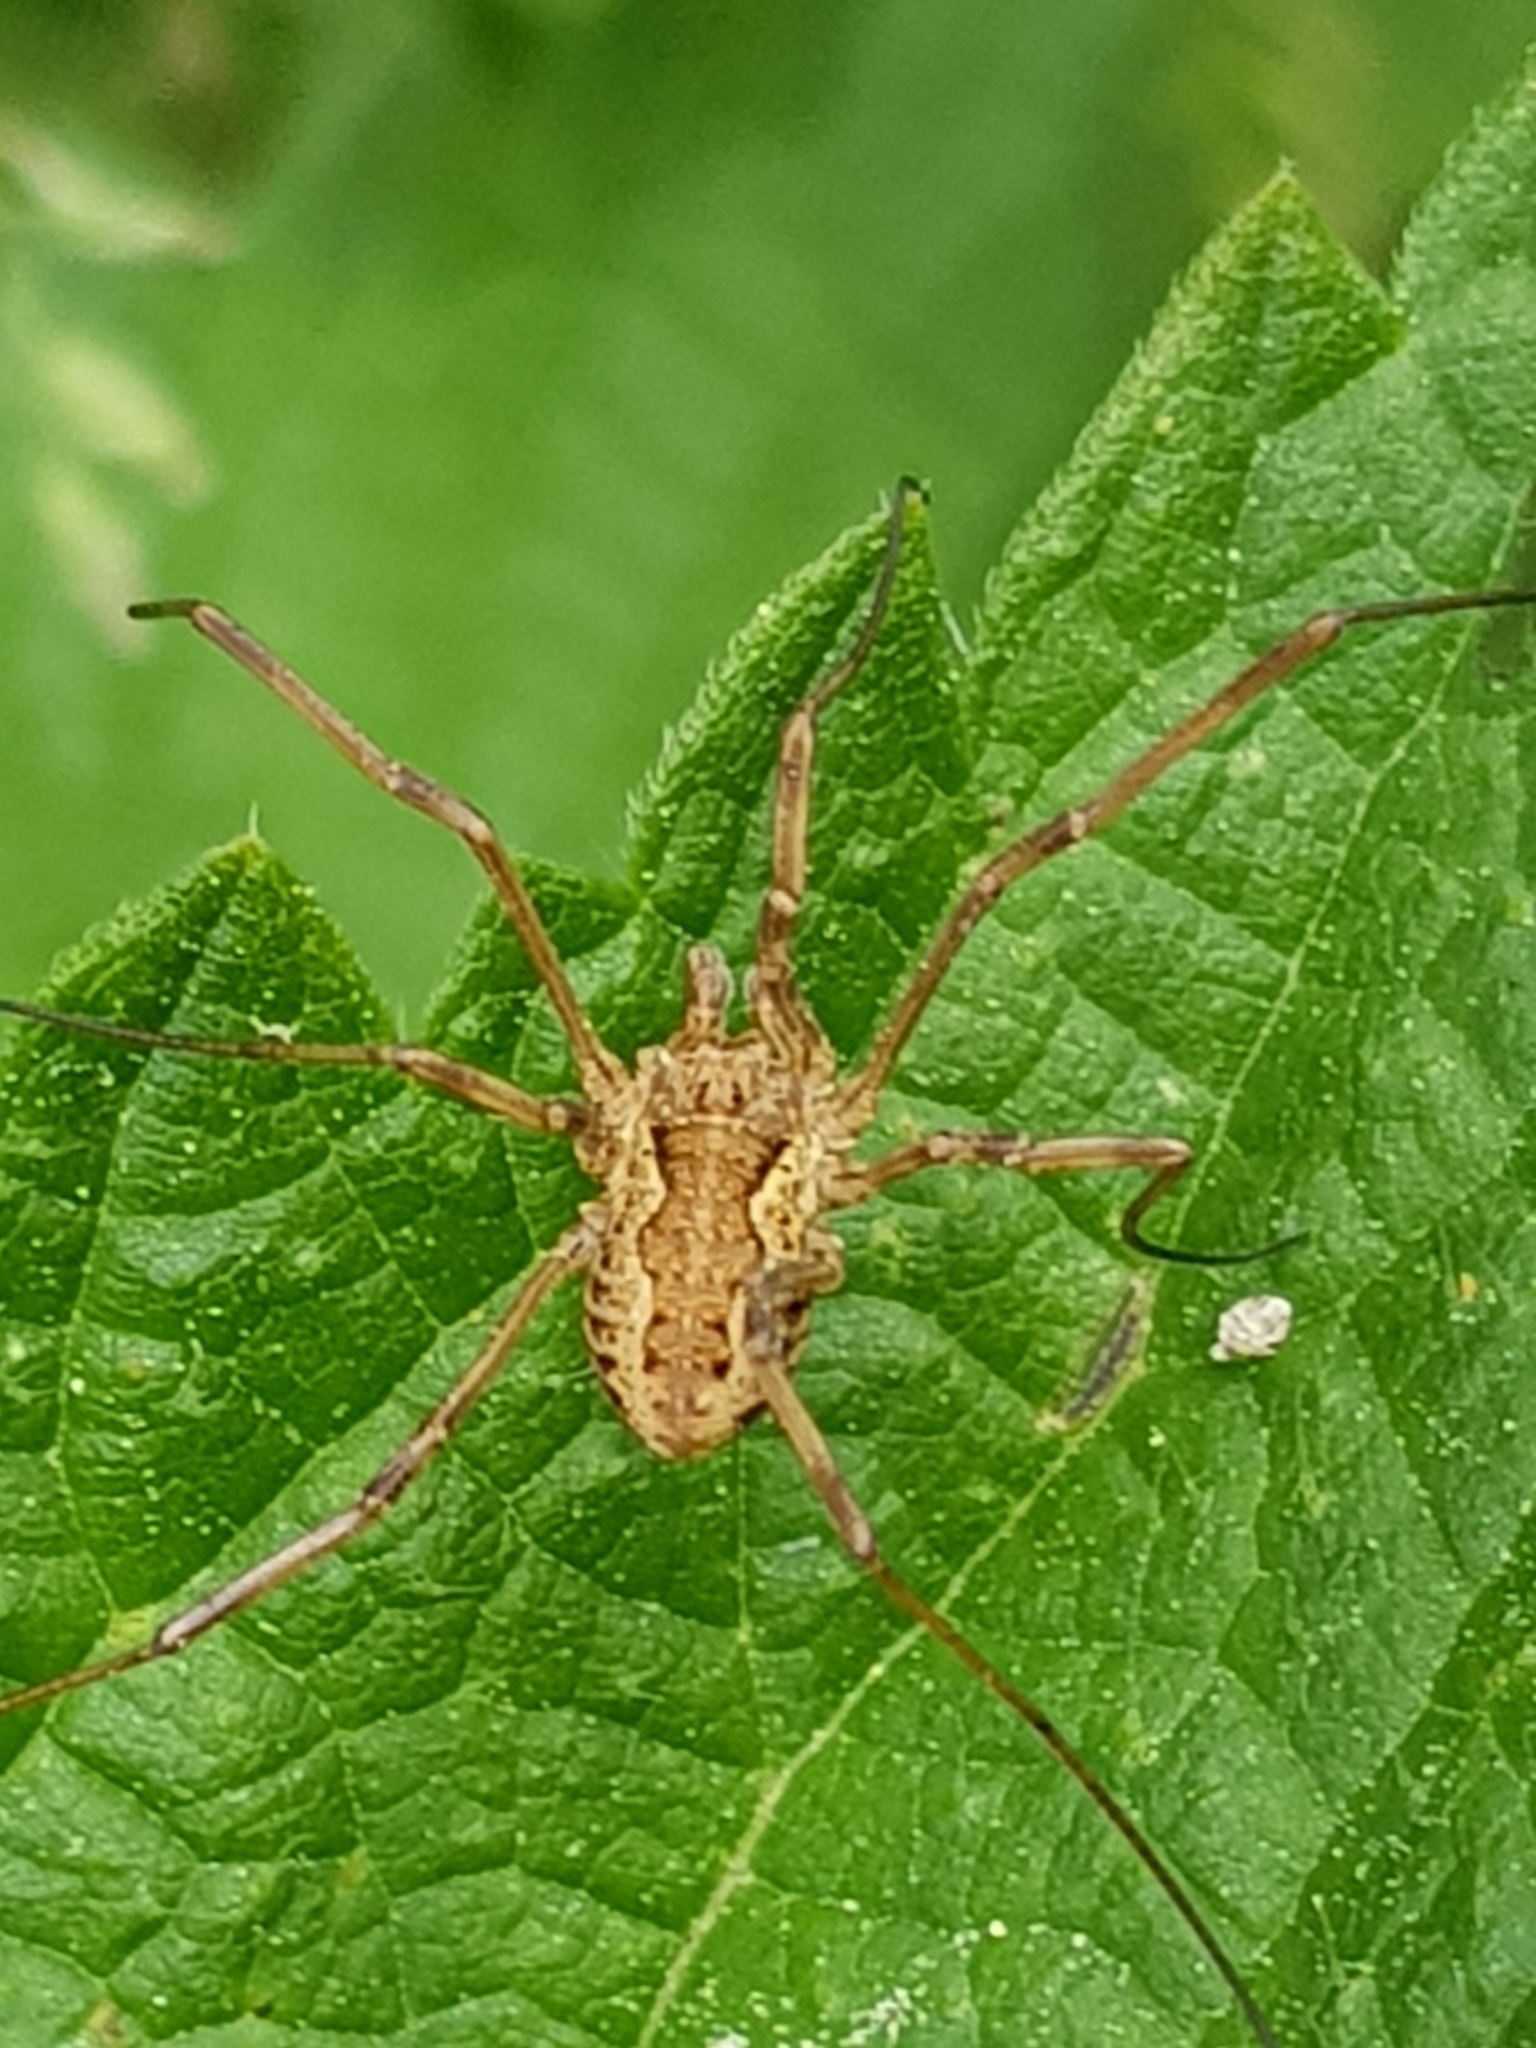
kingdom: Animalia
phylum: Arthropoda
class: Arachnida
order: Opiliones
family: Phalangiidae
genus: Mitopus
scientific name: Mitopus morio
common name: Saddleback harvestman
